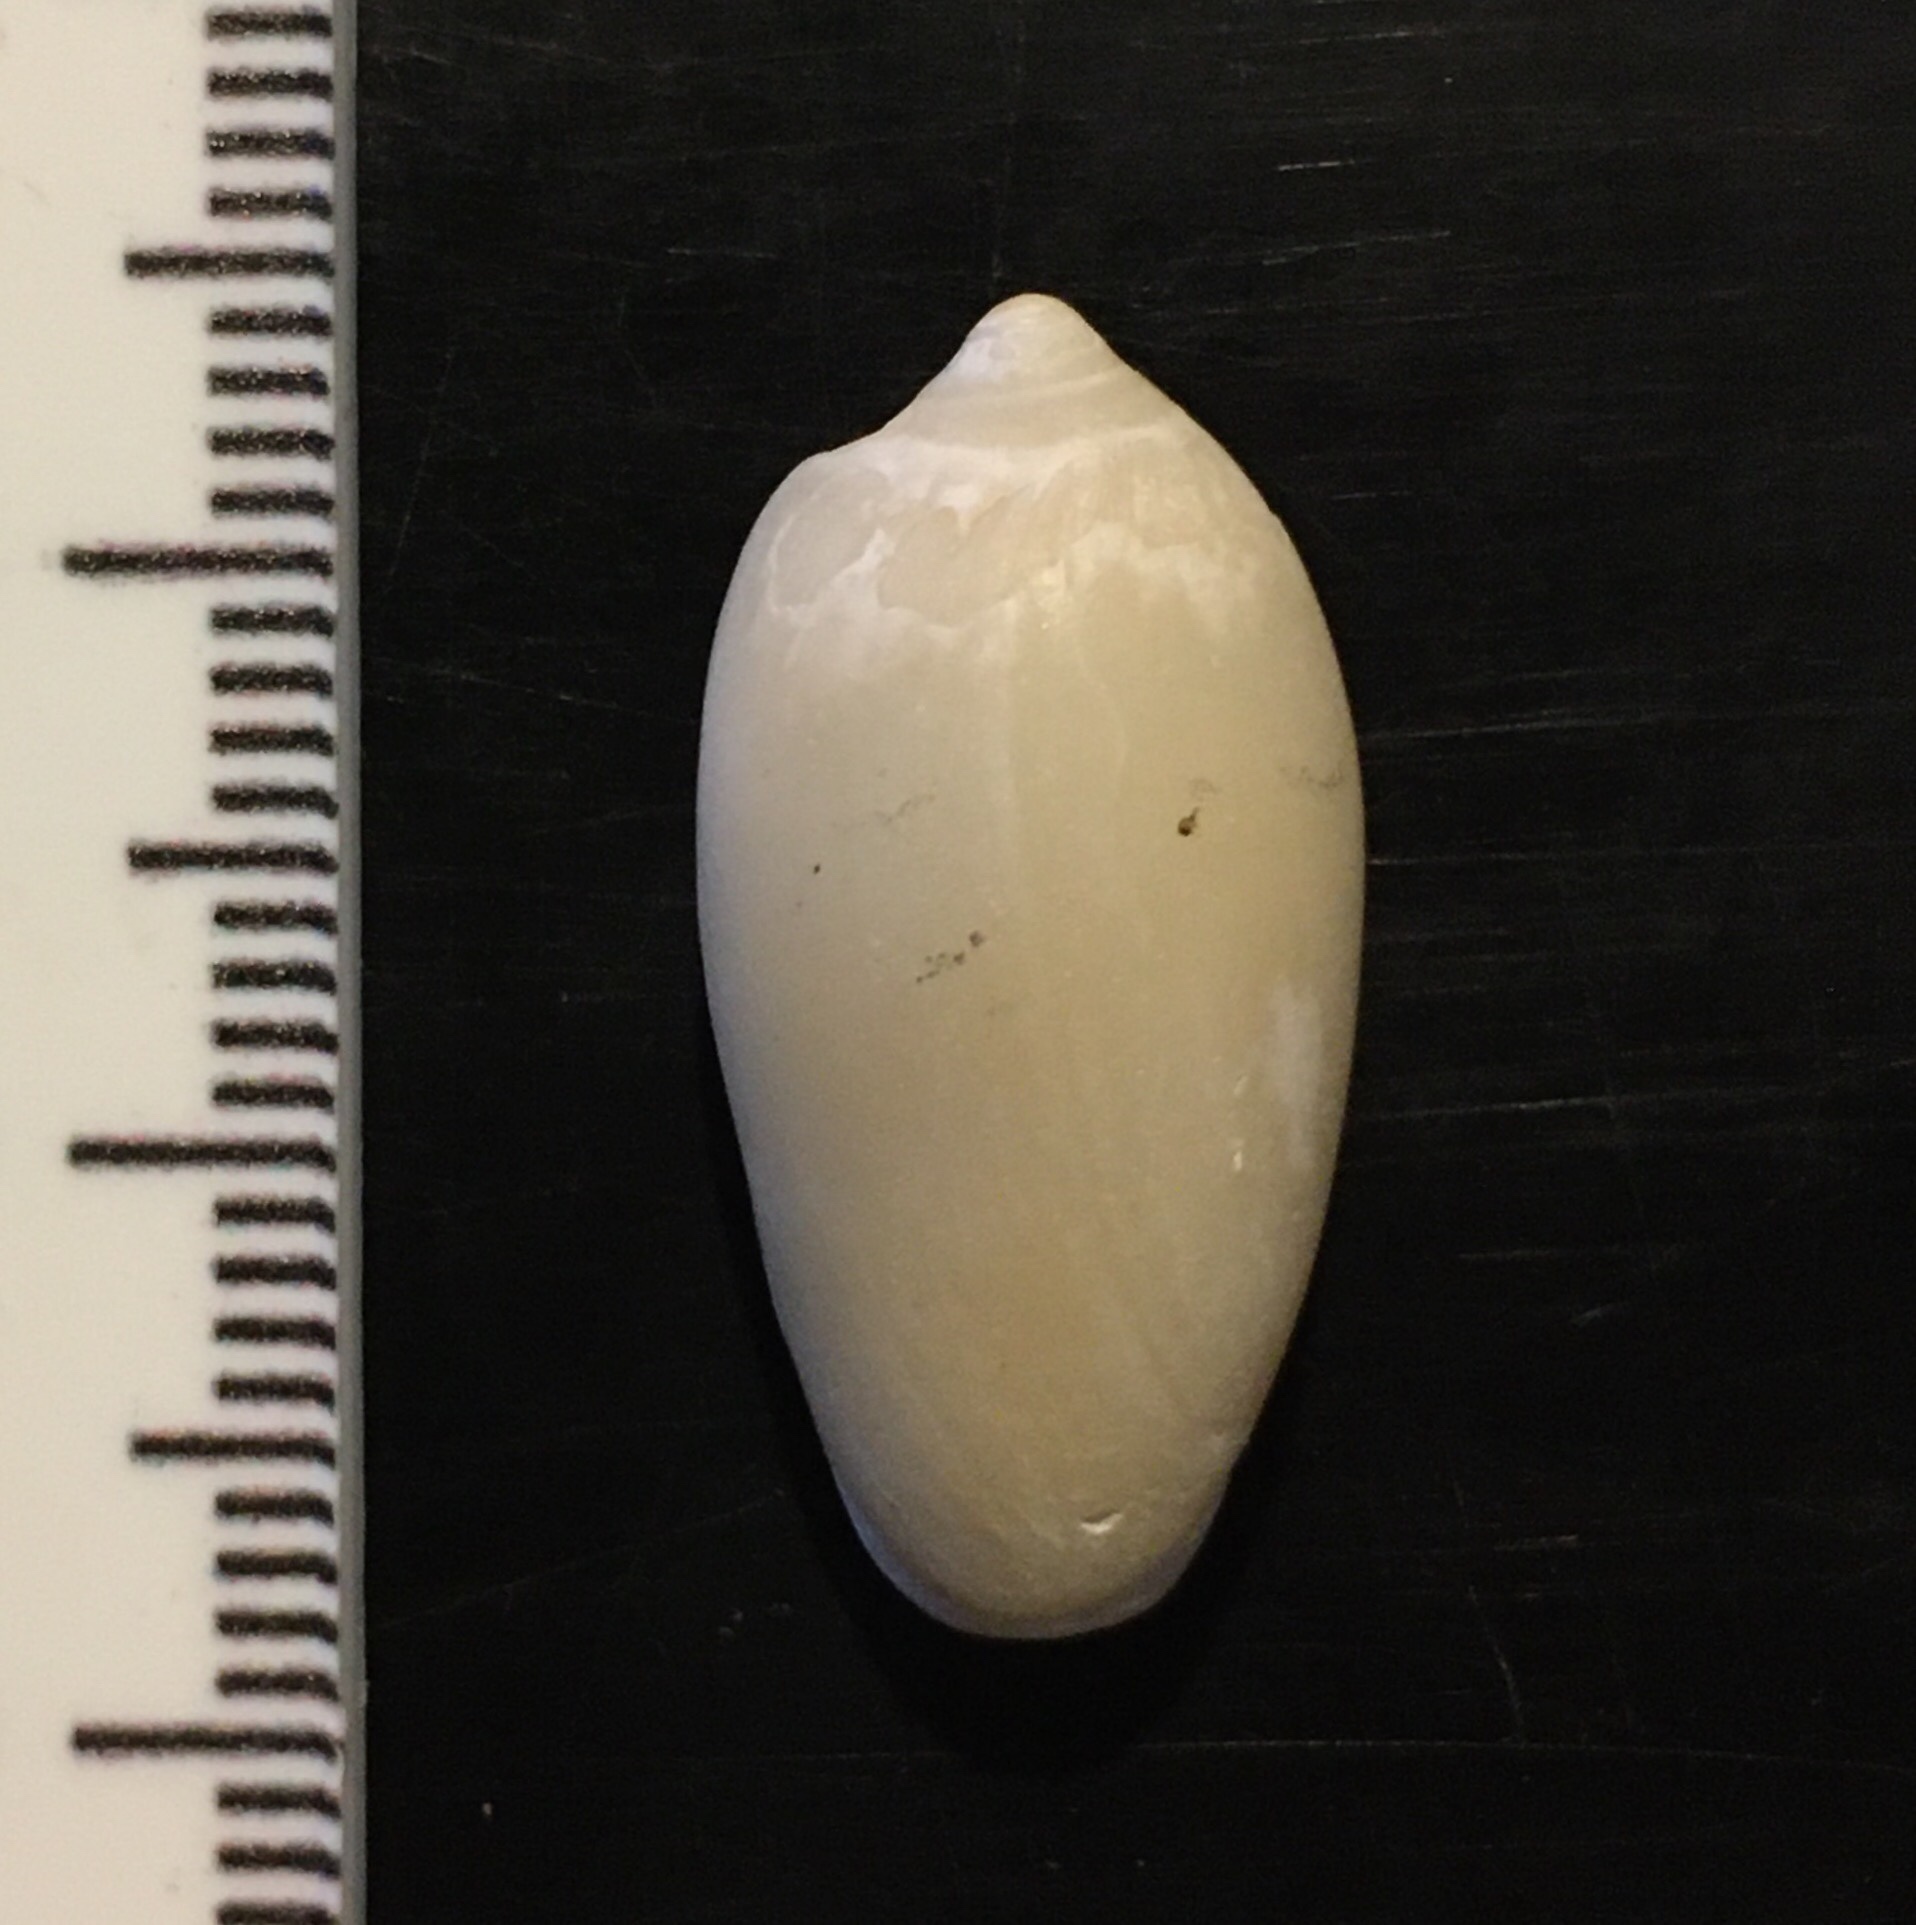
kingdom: Animalia
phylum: Mollusca
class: Gastropoda
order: Neogastropoda
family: Marginellidae
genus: Prunum
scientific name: Prunum martini
